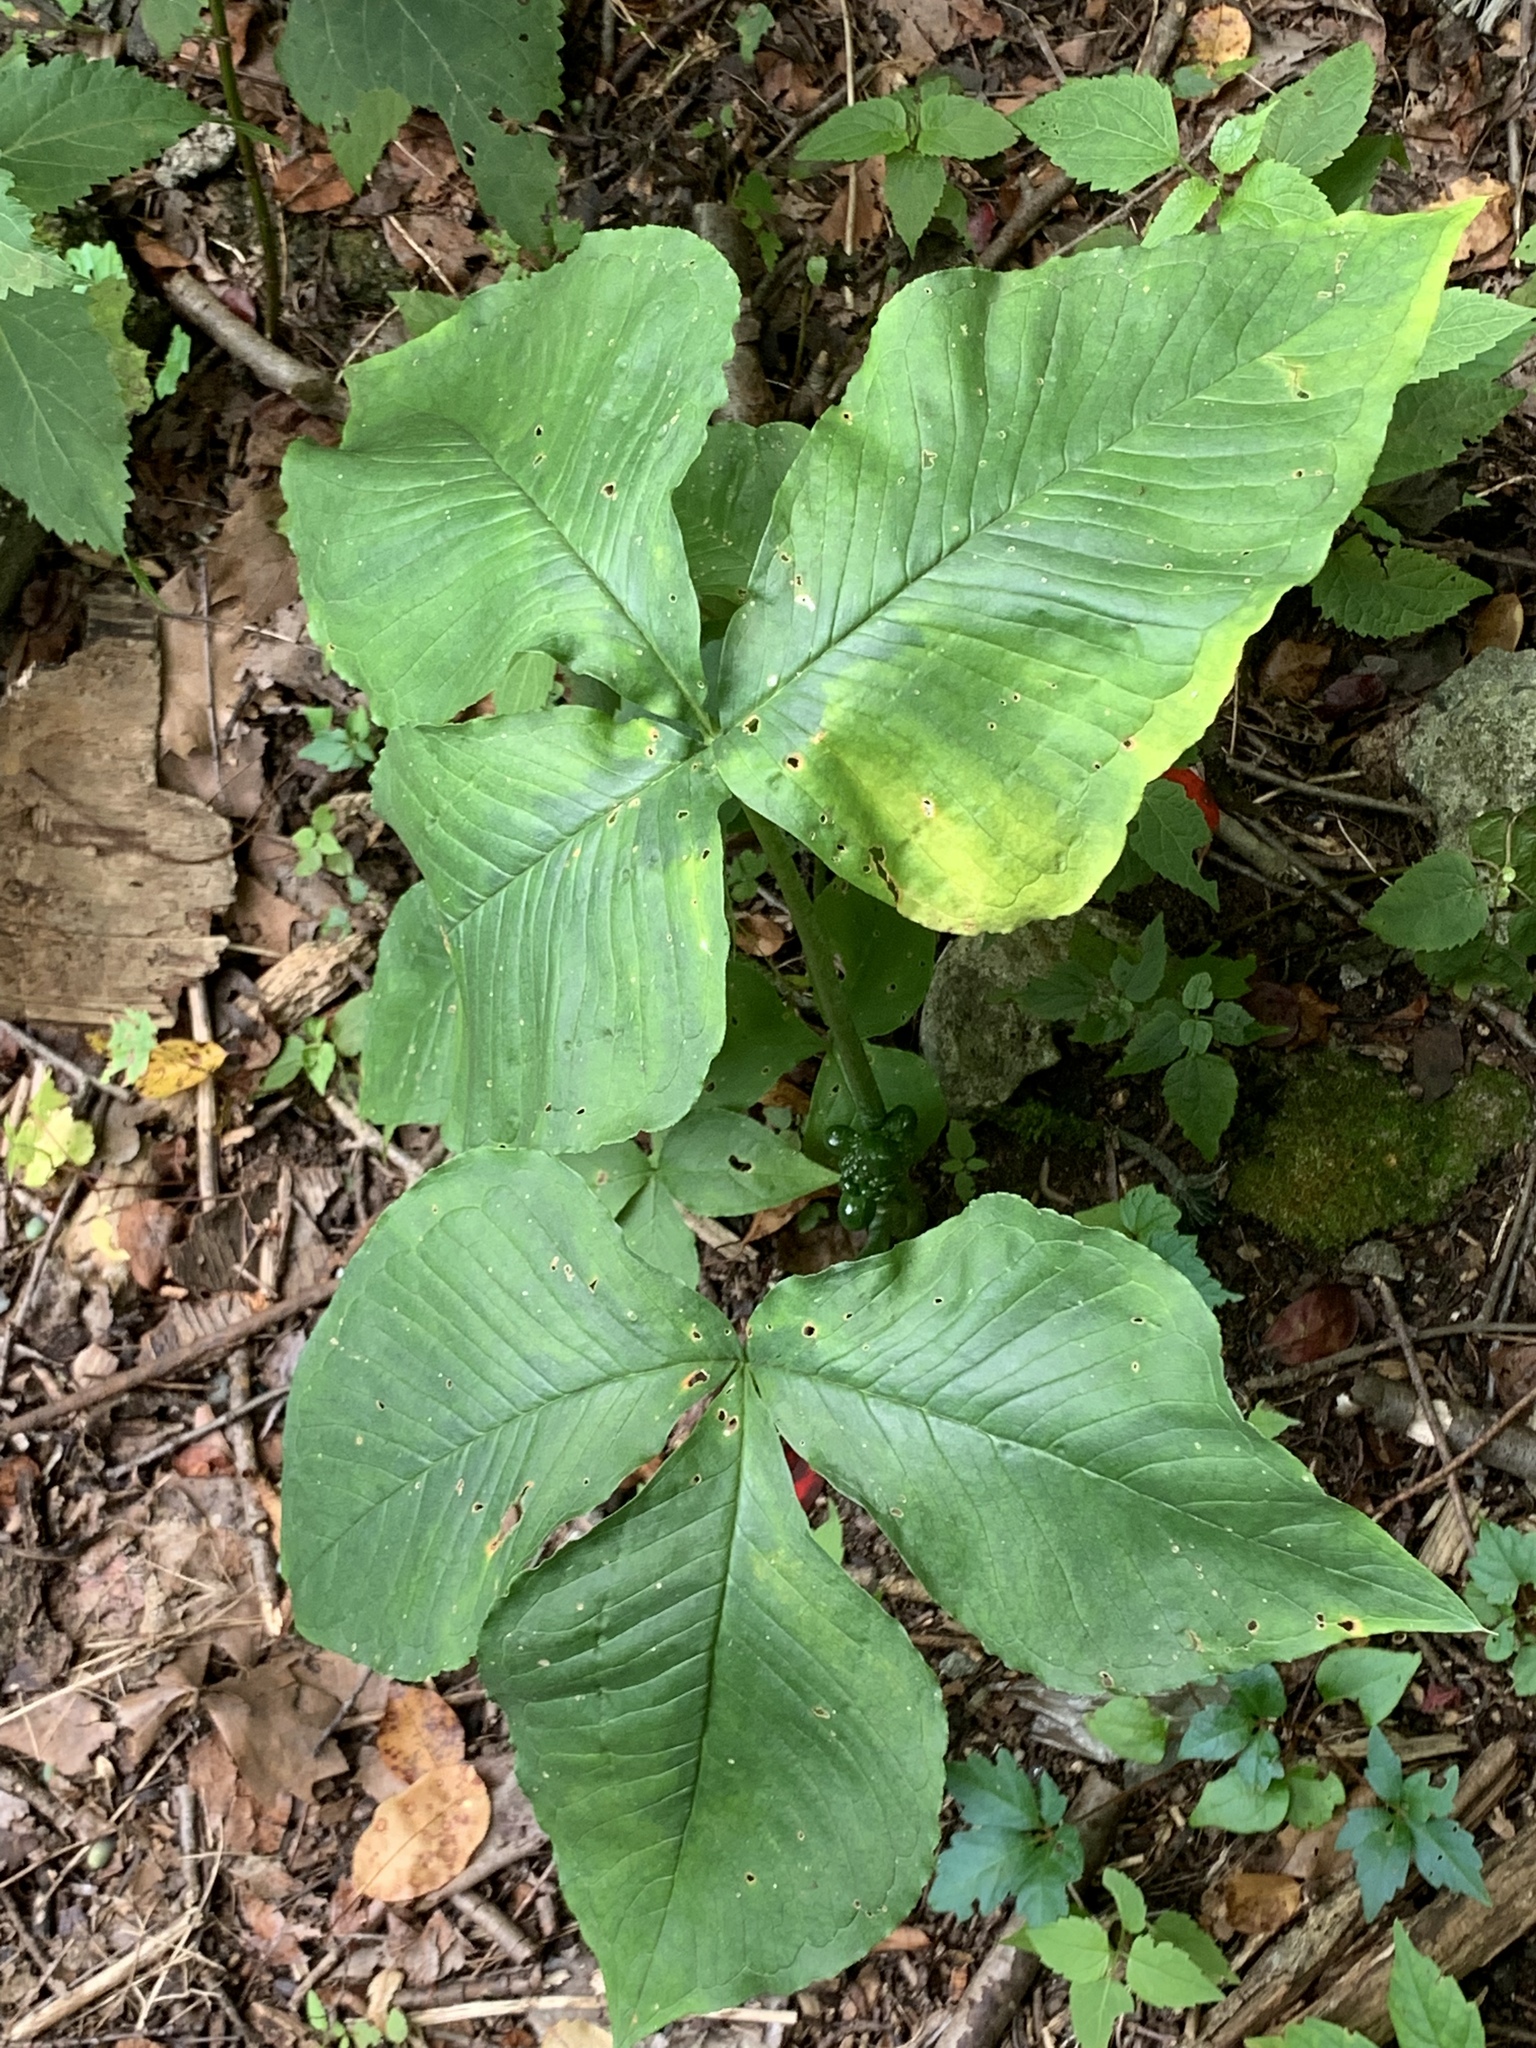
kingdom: Plantae
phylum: Tracheophyta
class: Liliopsida
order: Alismatales
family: Araceae
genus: Arisaema
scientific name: Arisaema triphyllum
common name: Jack-in-the-pulpit
